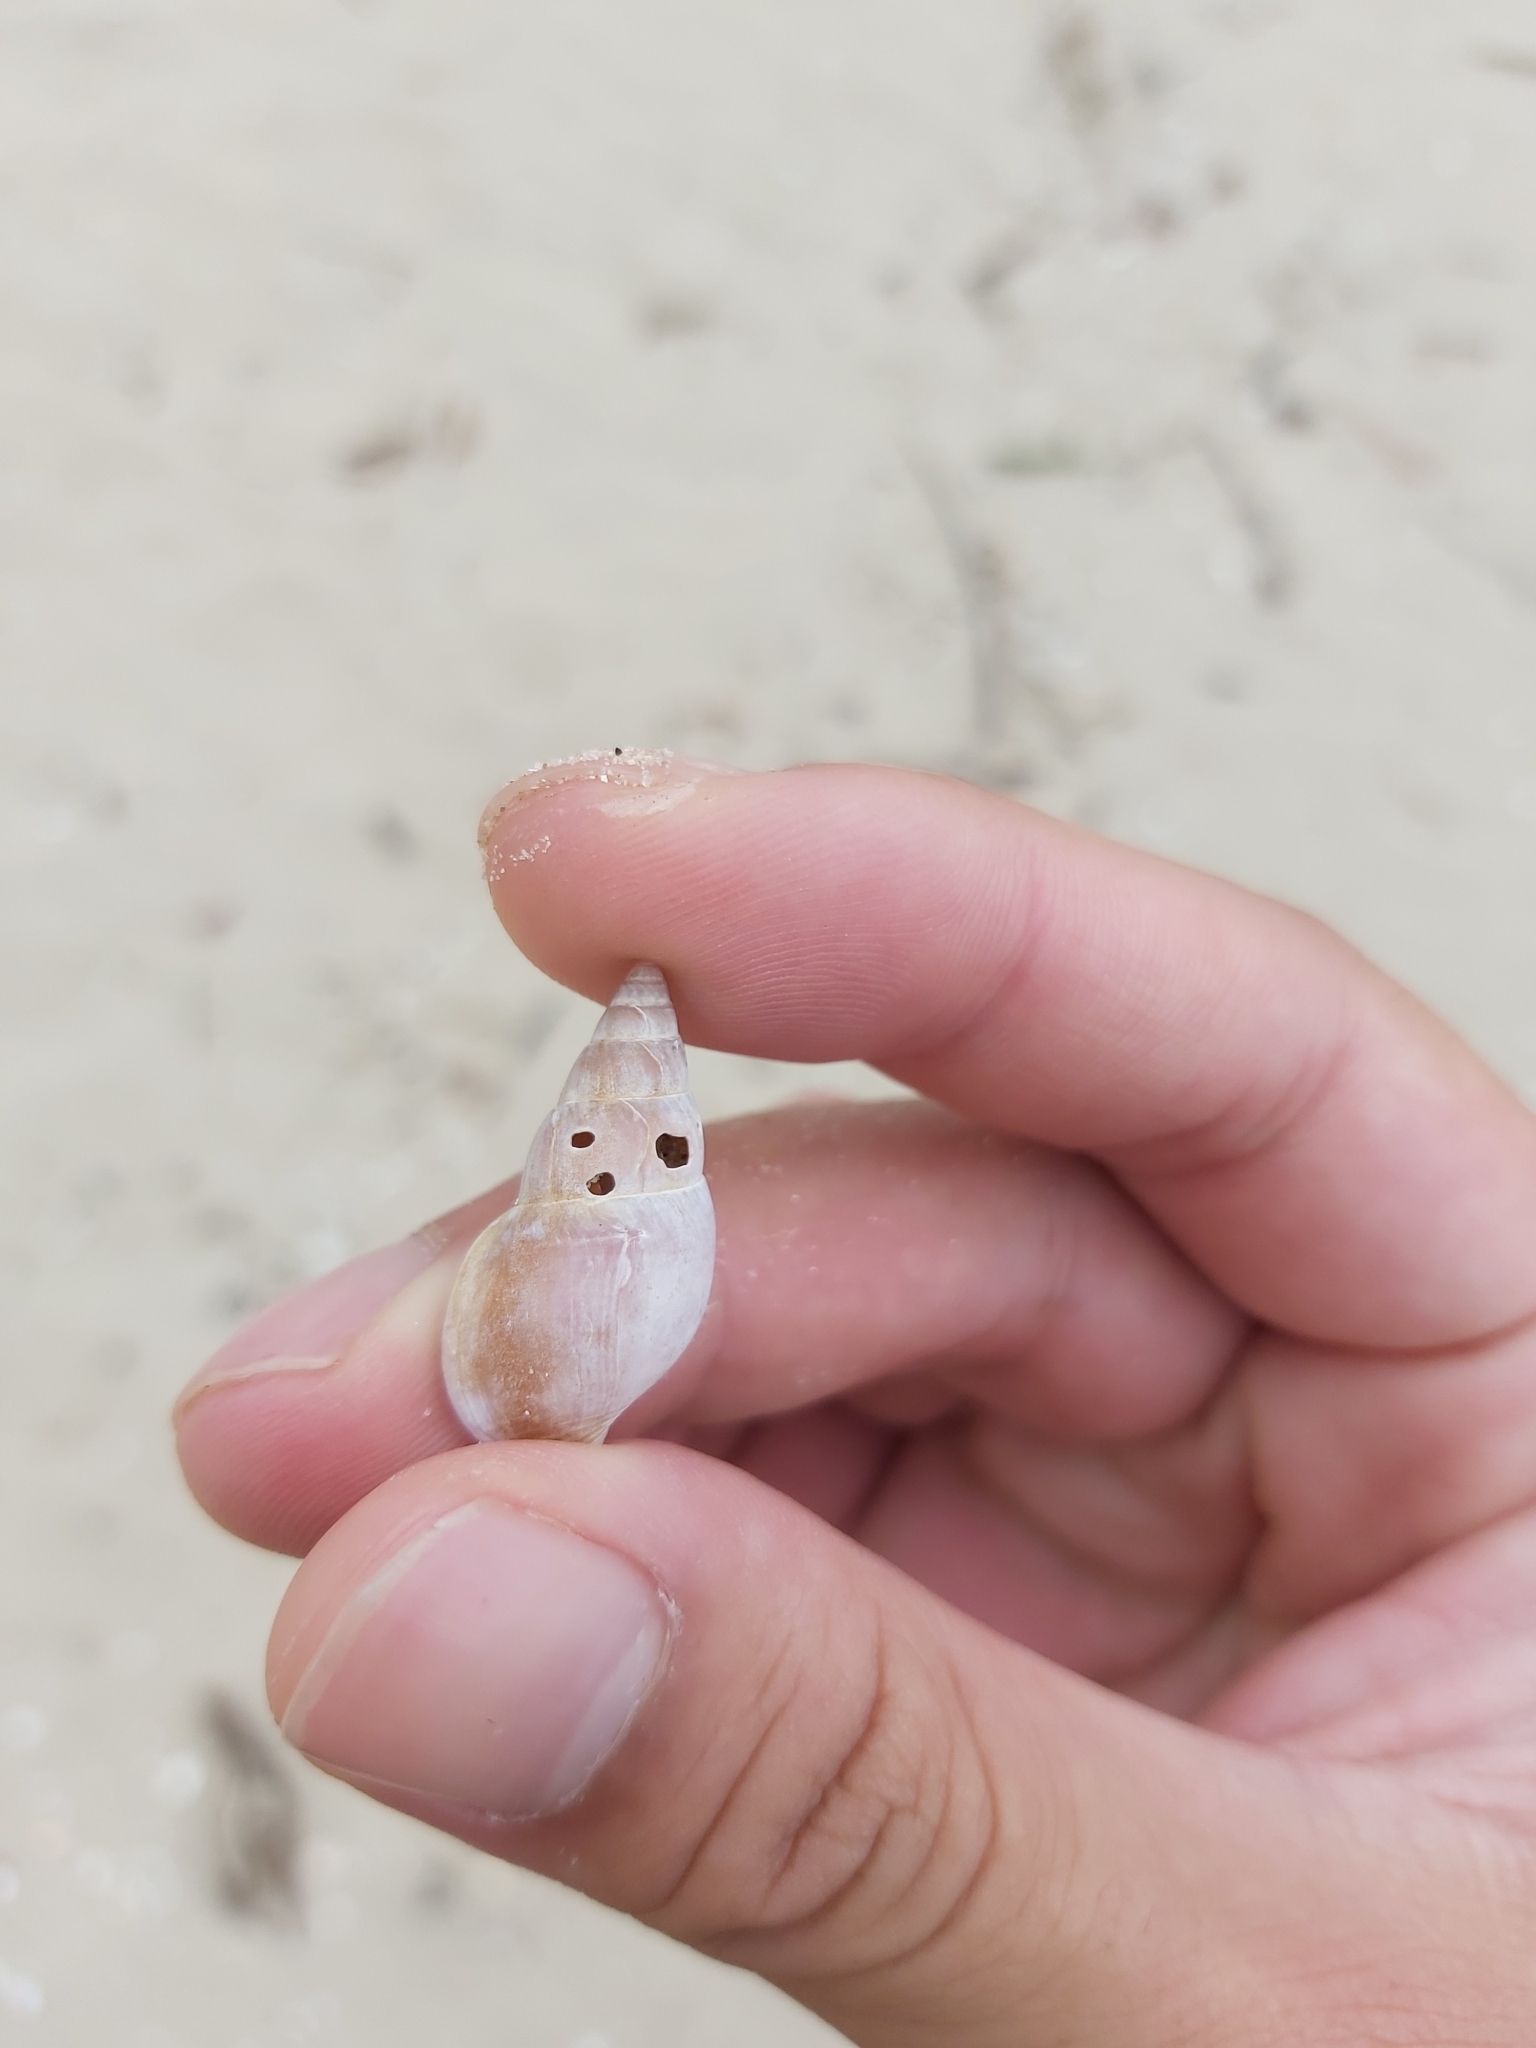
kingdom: Animalia
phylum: Mollusca
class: Gastropoda
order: Neogastropoda
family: Nassariidae
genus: Nassarius
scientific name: Nassarius dorsatus
